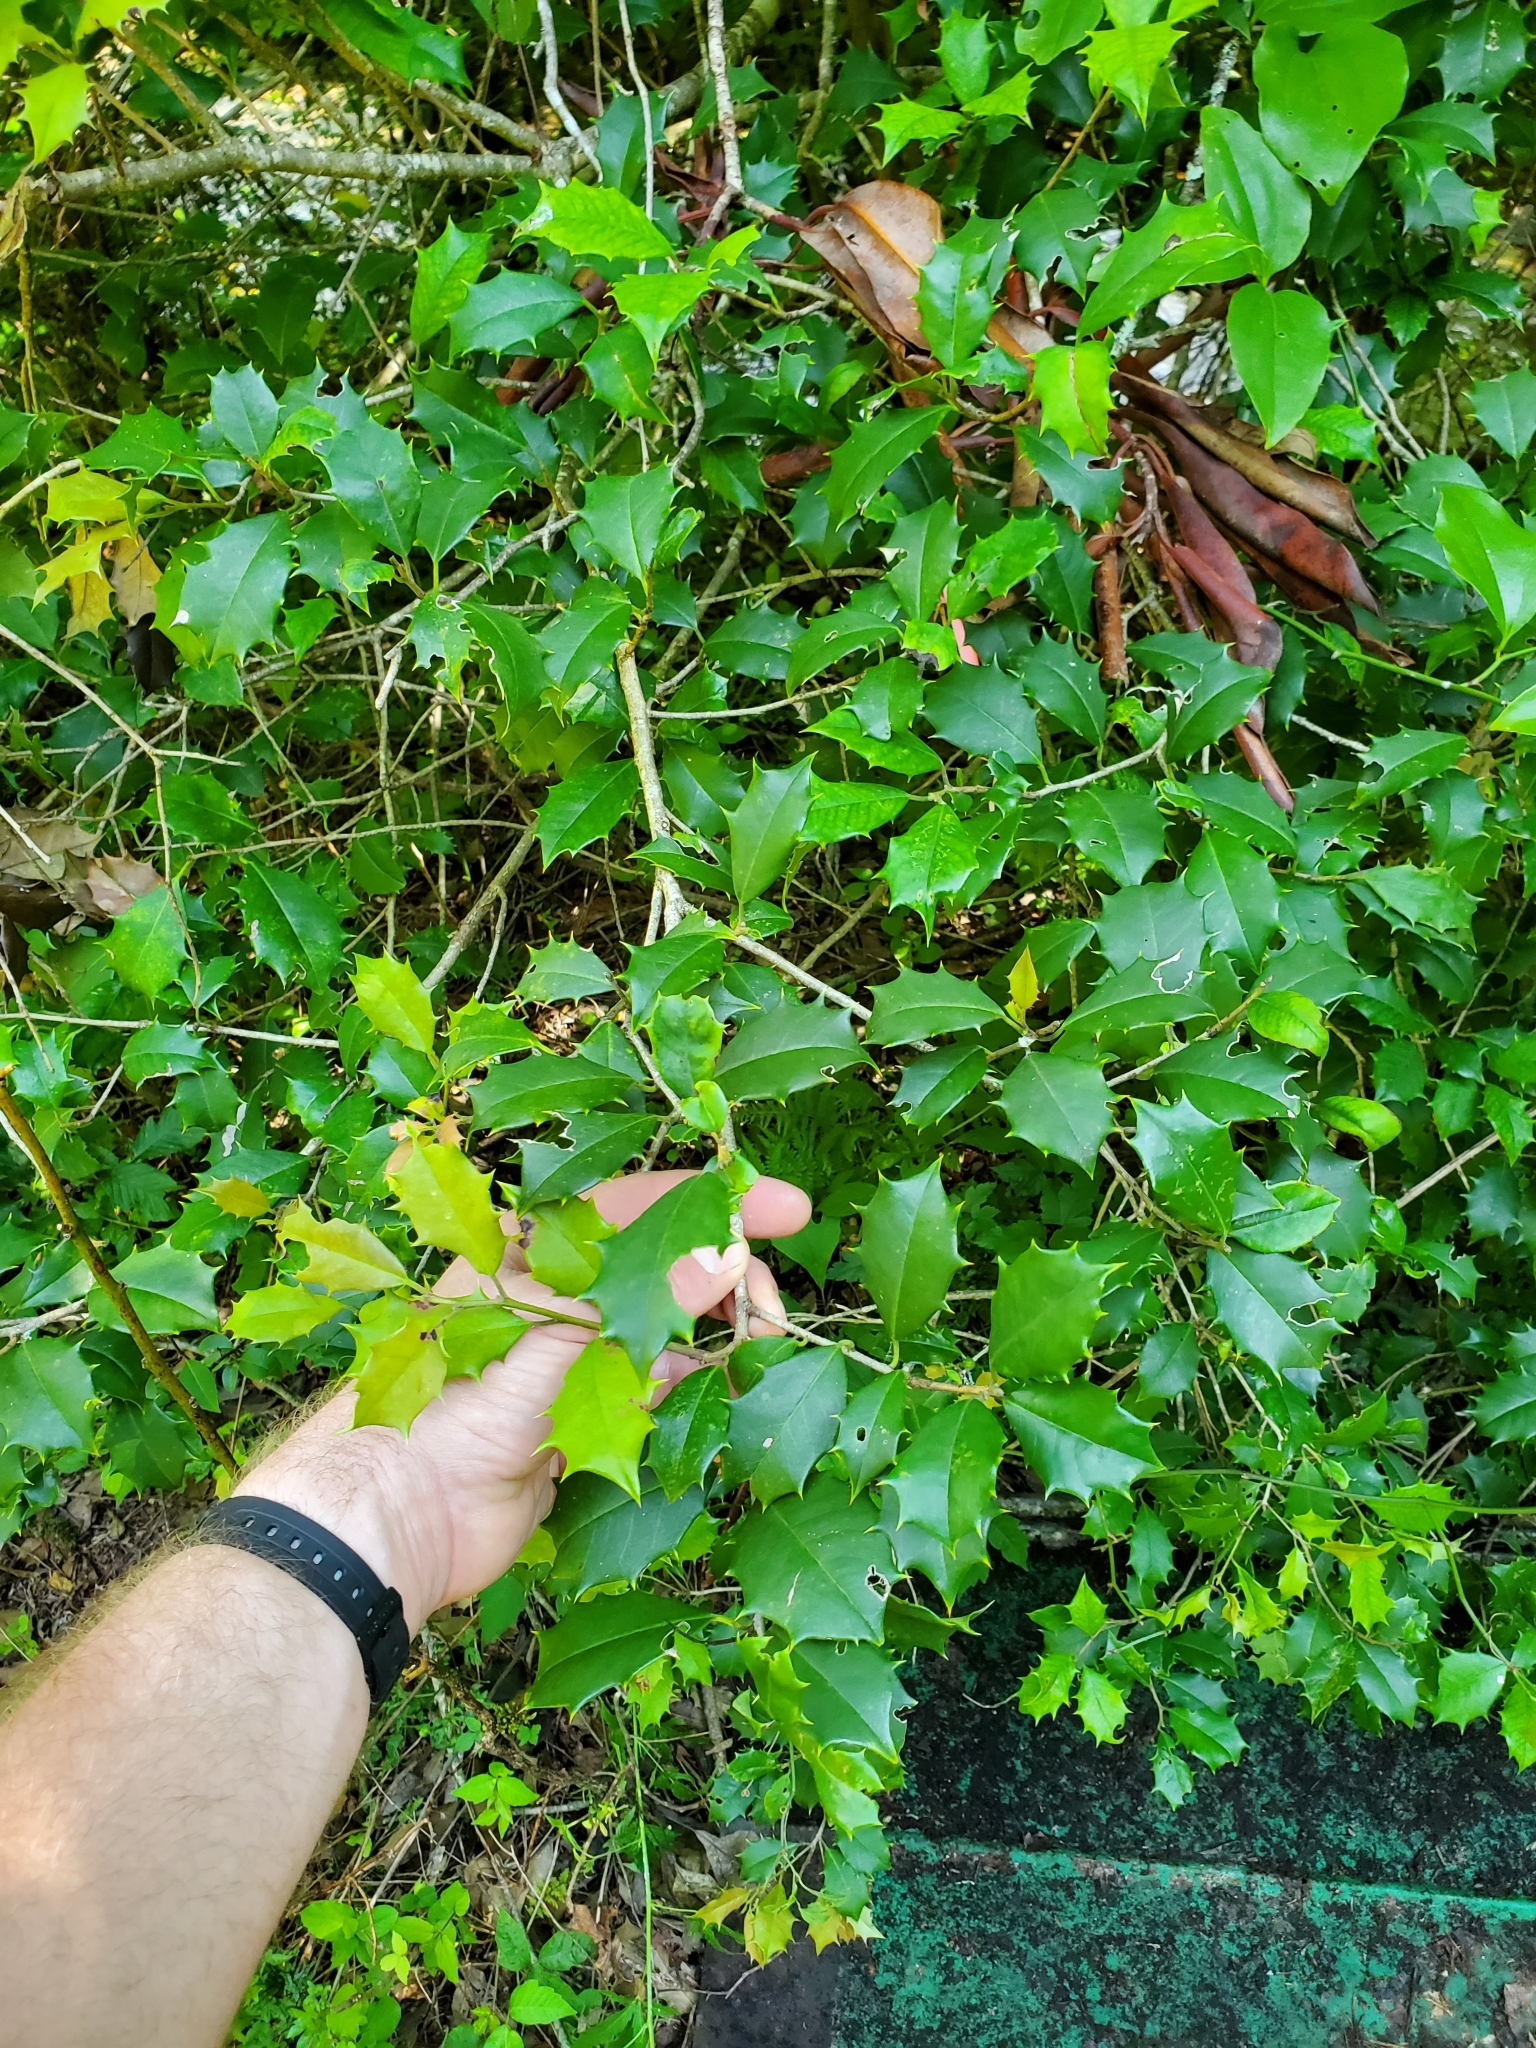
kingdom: Plantae
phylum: Tracheophyta
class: Magnoliopsida
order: Aquifoliales
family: Aquifoliaceae
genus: Ilex
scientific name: Ilex opaca
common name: American holly
